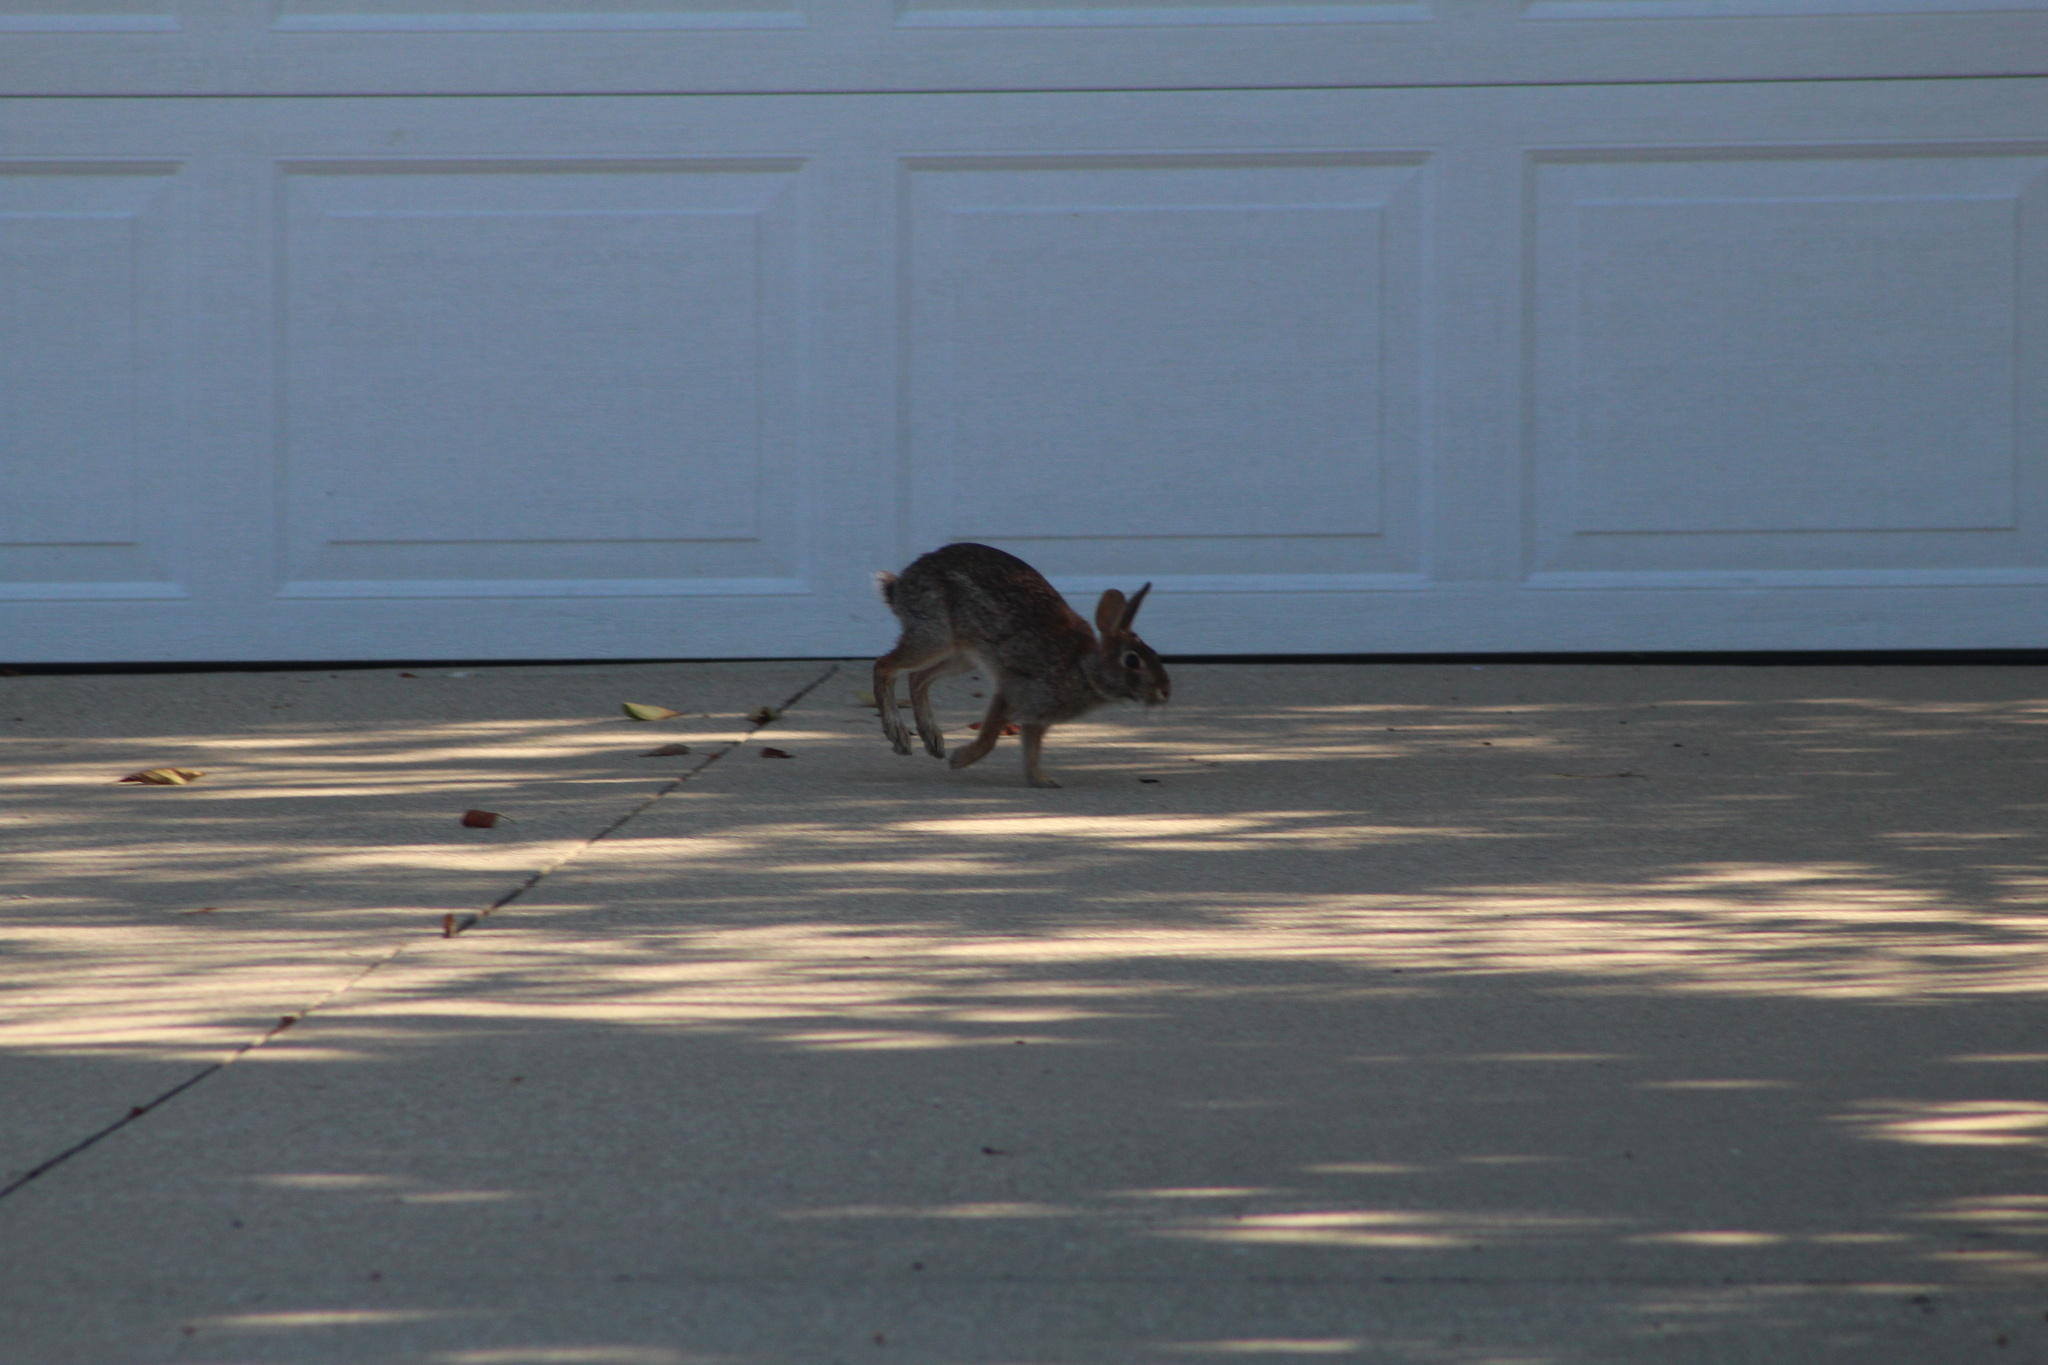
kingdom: Animalia
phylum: Chordata
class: Mammalia
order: Lagomorpha
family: Leporidae
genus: Sylvilagus
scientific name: Sylvilagus floridanus
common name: Eastern cottontail
